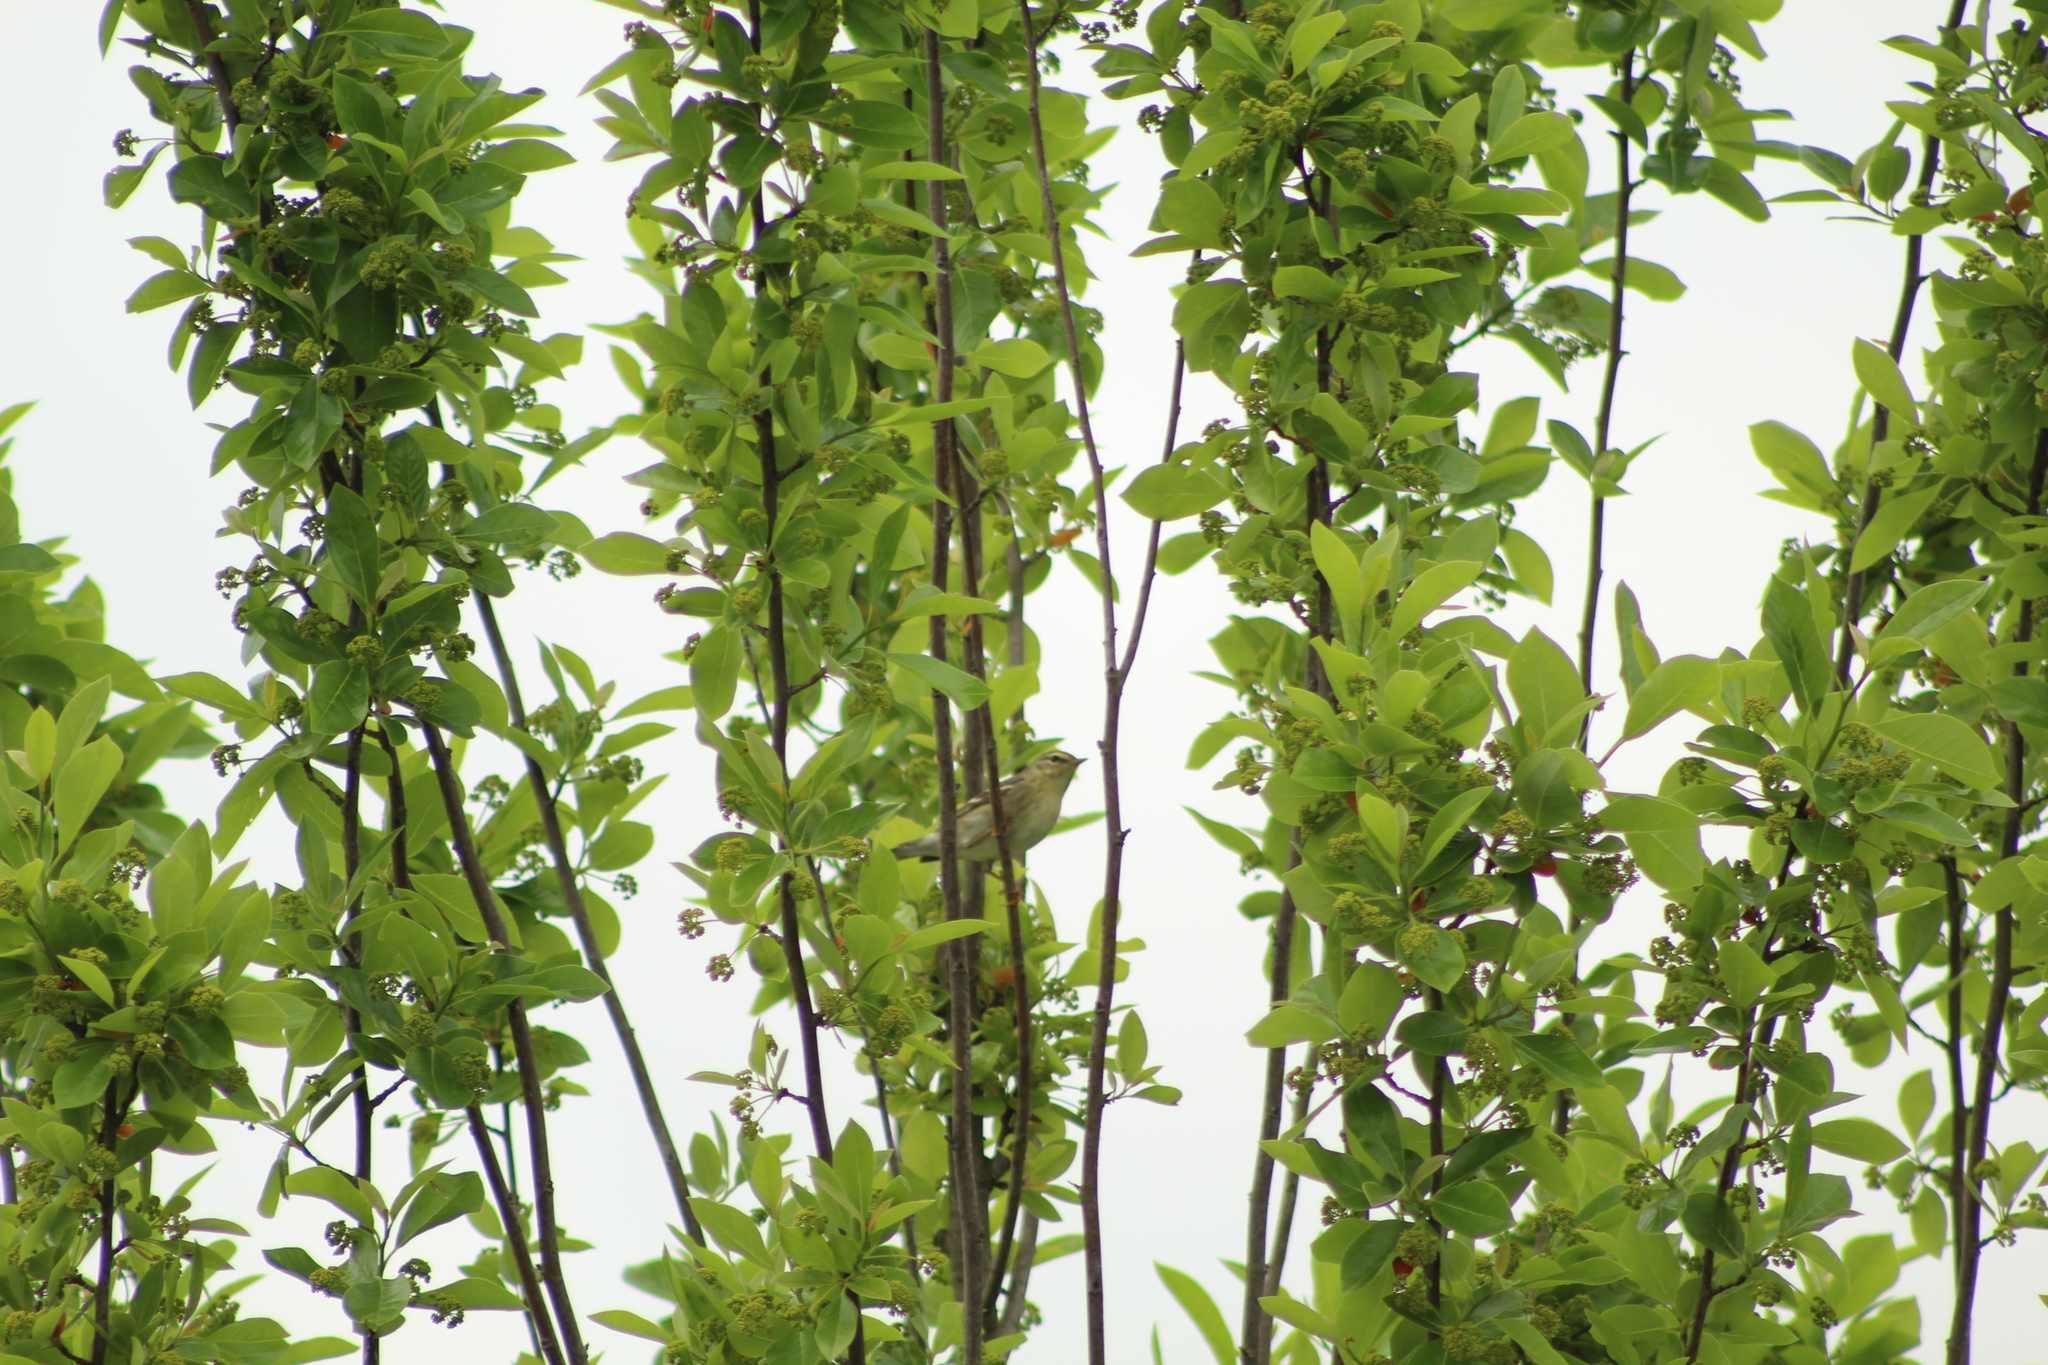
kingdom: Animalia
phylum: Chordata
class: Aves
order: Passeriformes
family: Parulidae
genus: Setophaga
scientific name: Setophaga striata
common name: Blackpoll warbler
